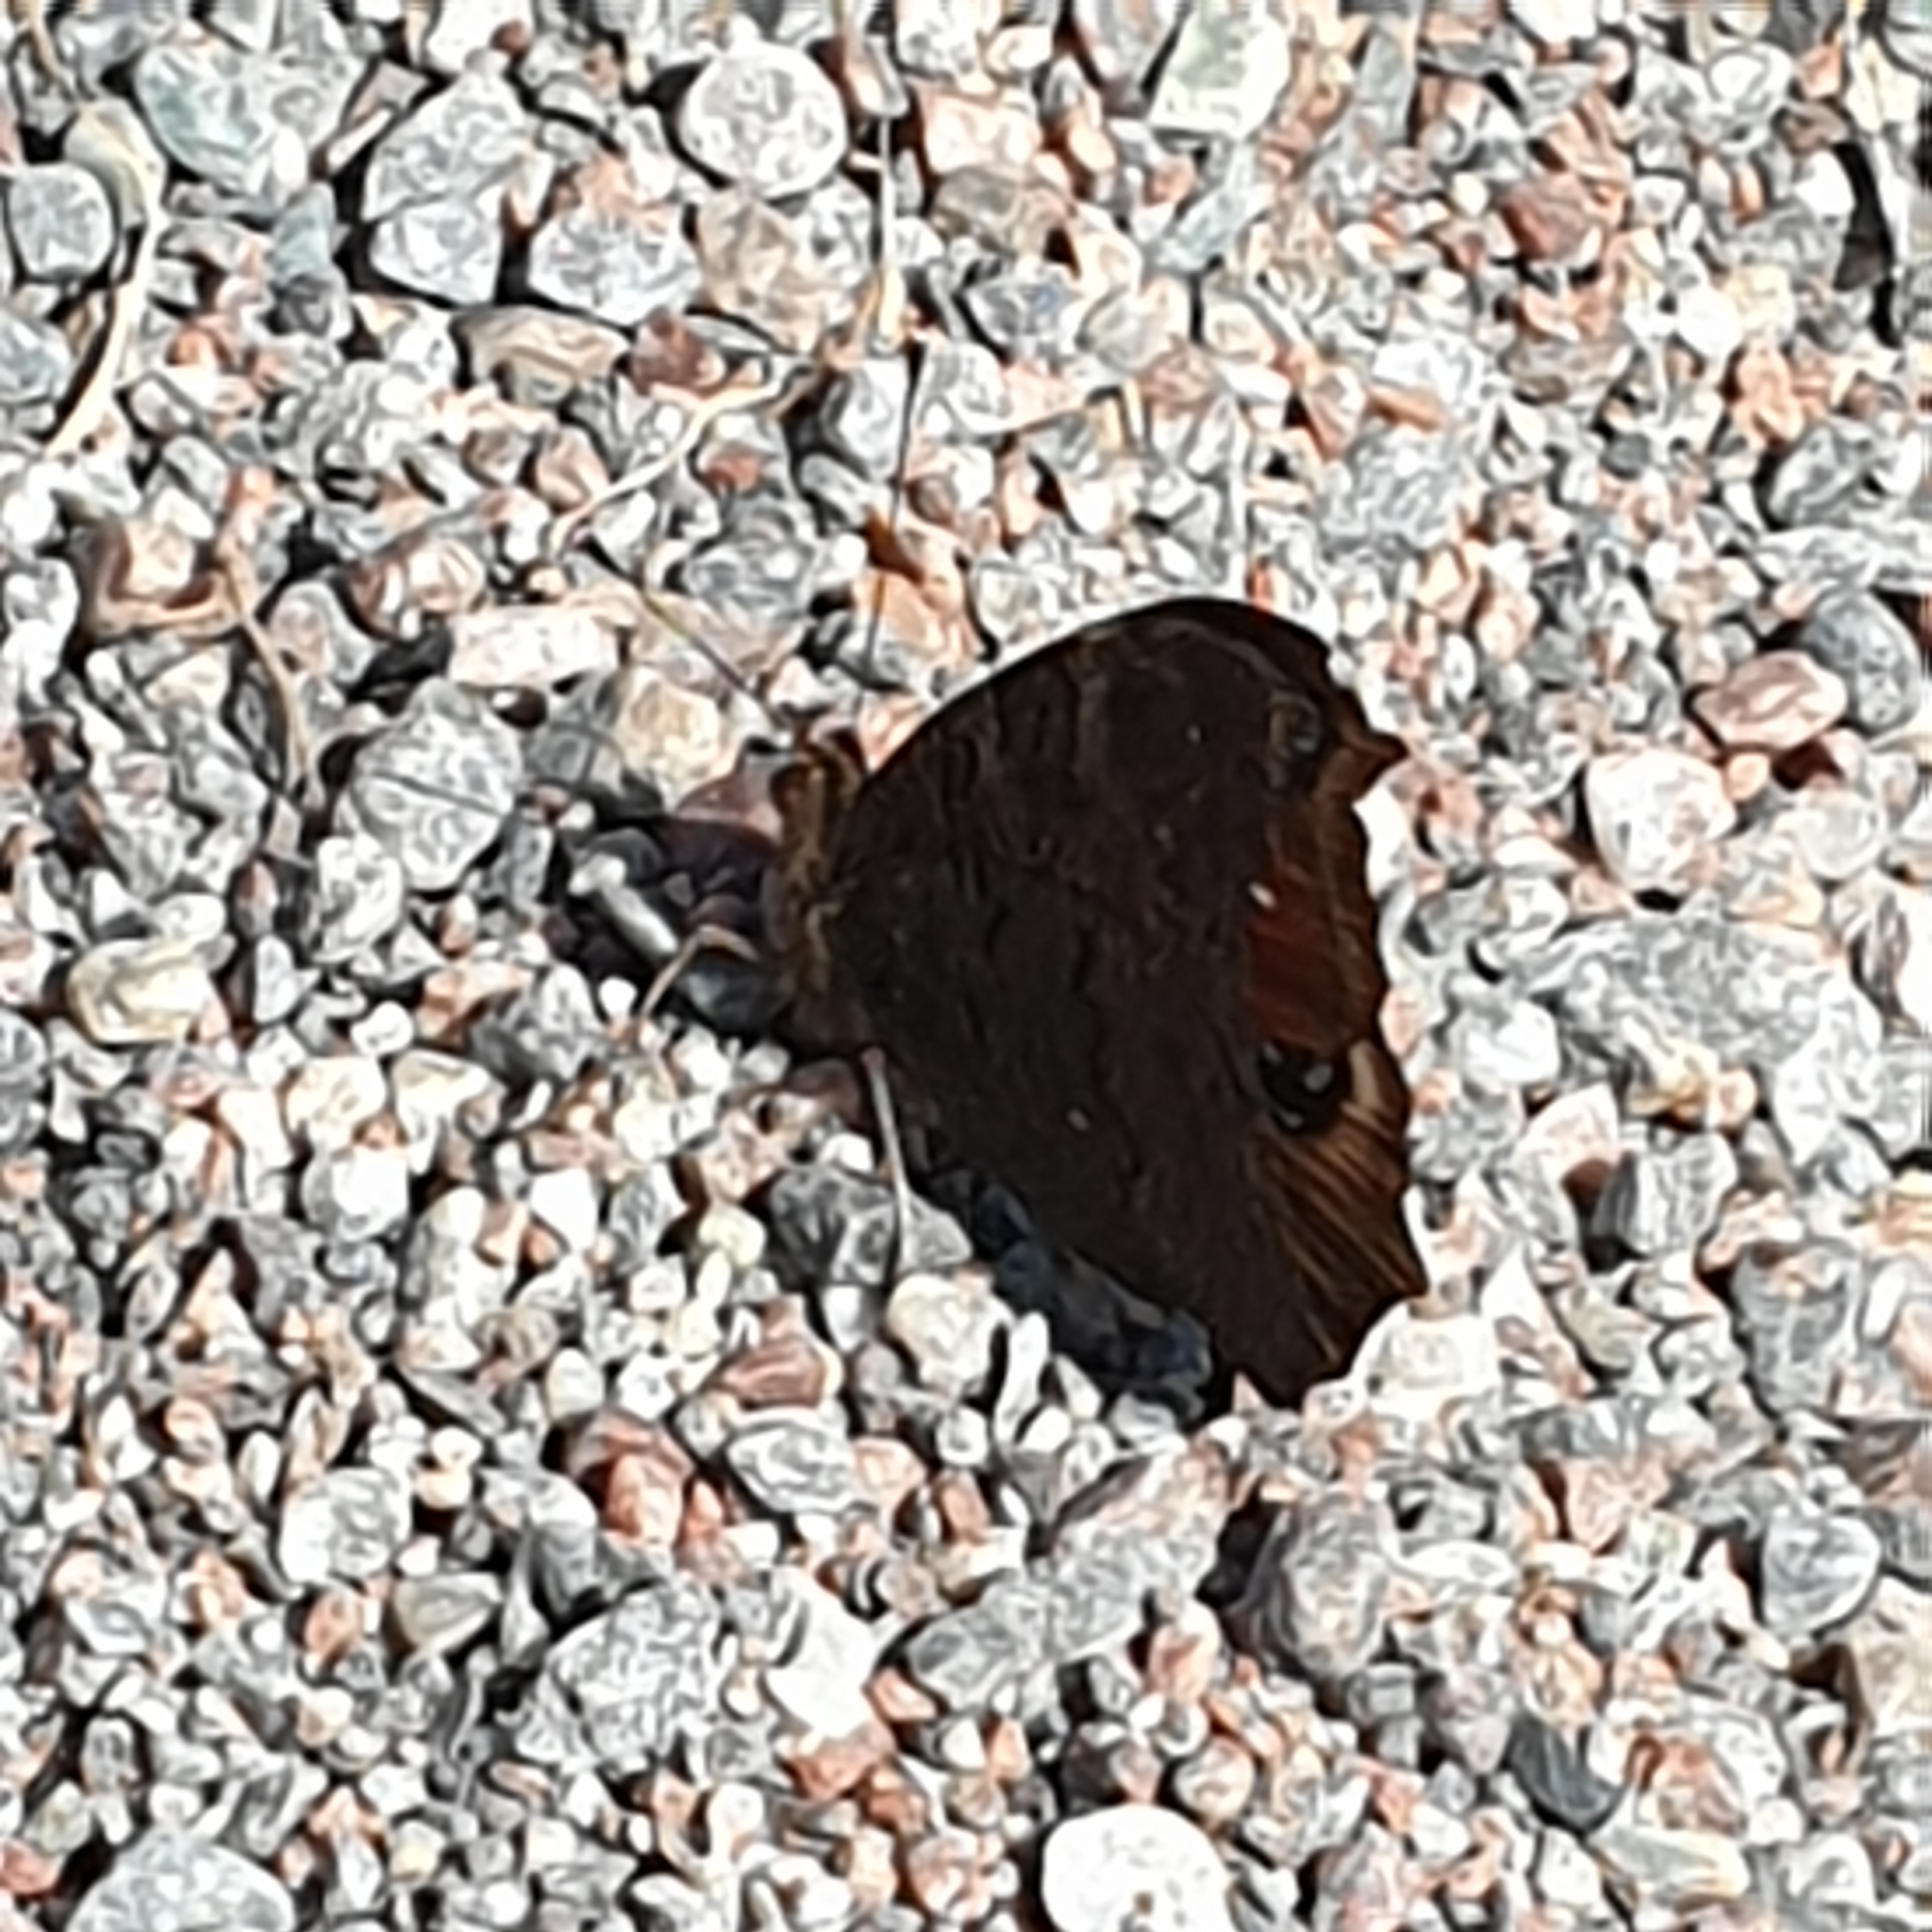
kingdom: Animalia
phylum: Arthropoda
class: Insecta
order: Lepidoptera
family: Nymphalidae
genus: Aglais
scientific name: Aglais io
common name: Peacock
